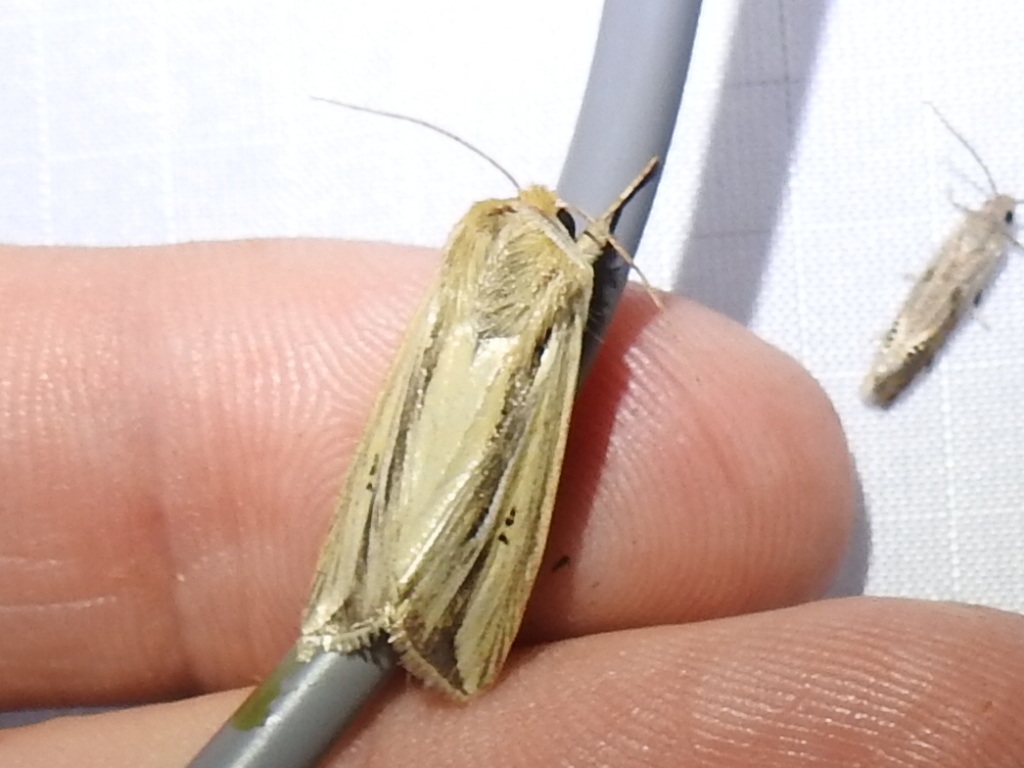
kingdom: Animalia
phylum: Arthropoda
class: Insecta
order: Lepidoptera
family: Noctuidae
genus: Dargida
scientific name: Dargida diffusa
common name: Wheat head armyworm
